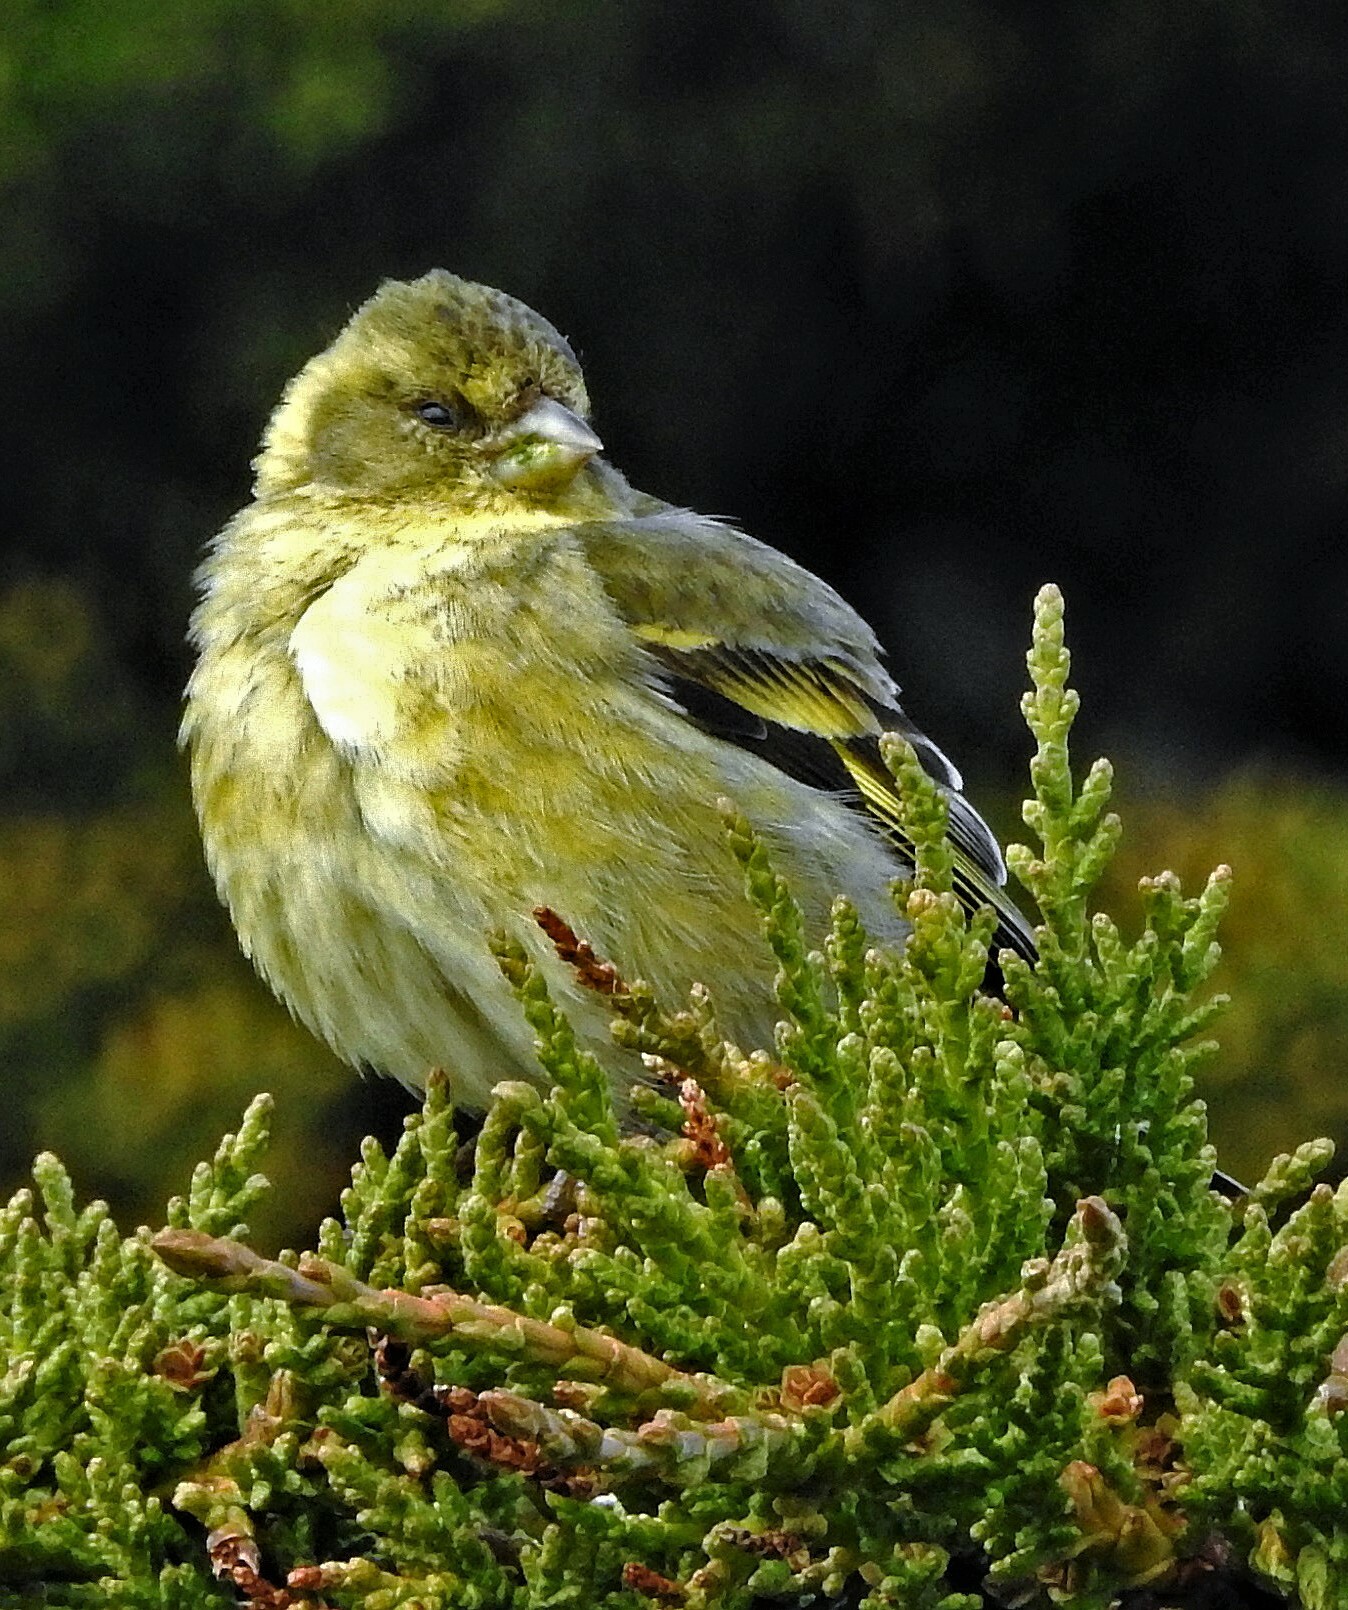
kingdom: Animalia
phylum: Chordata
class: Aves
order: Passeriformes
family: Fringillidae
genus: Spinus
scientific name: Spinus barbatus
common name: Black-chinned siskin
